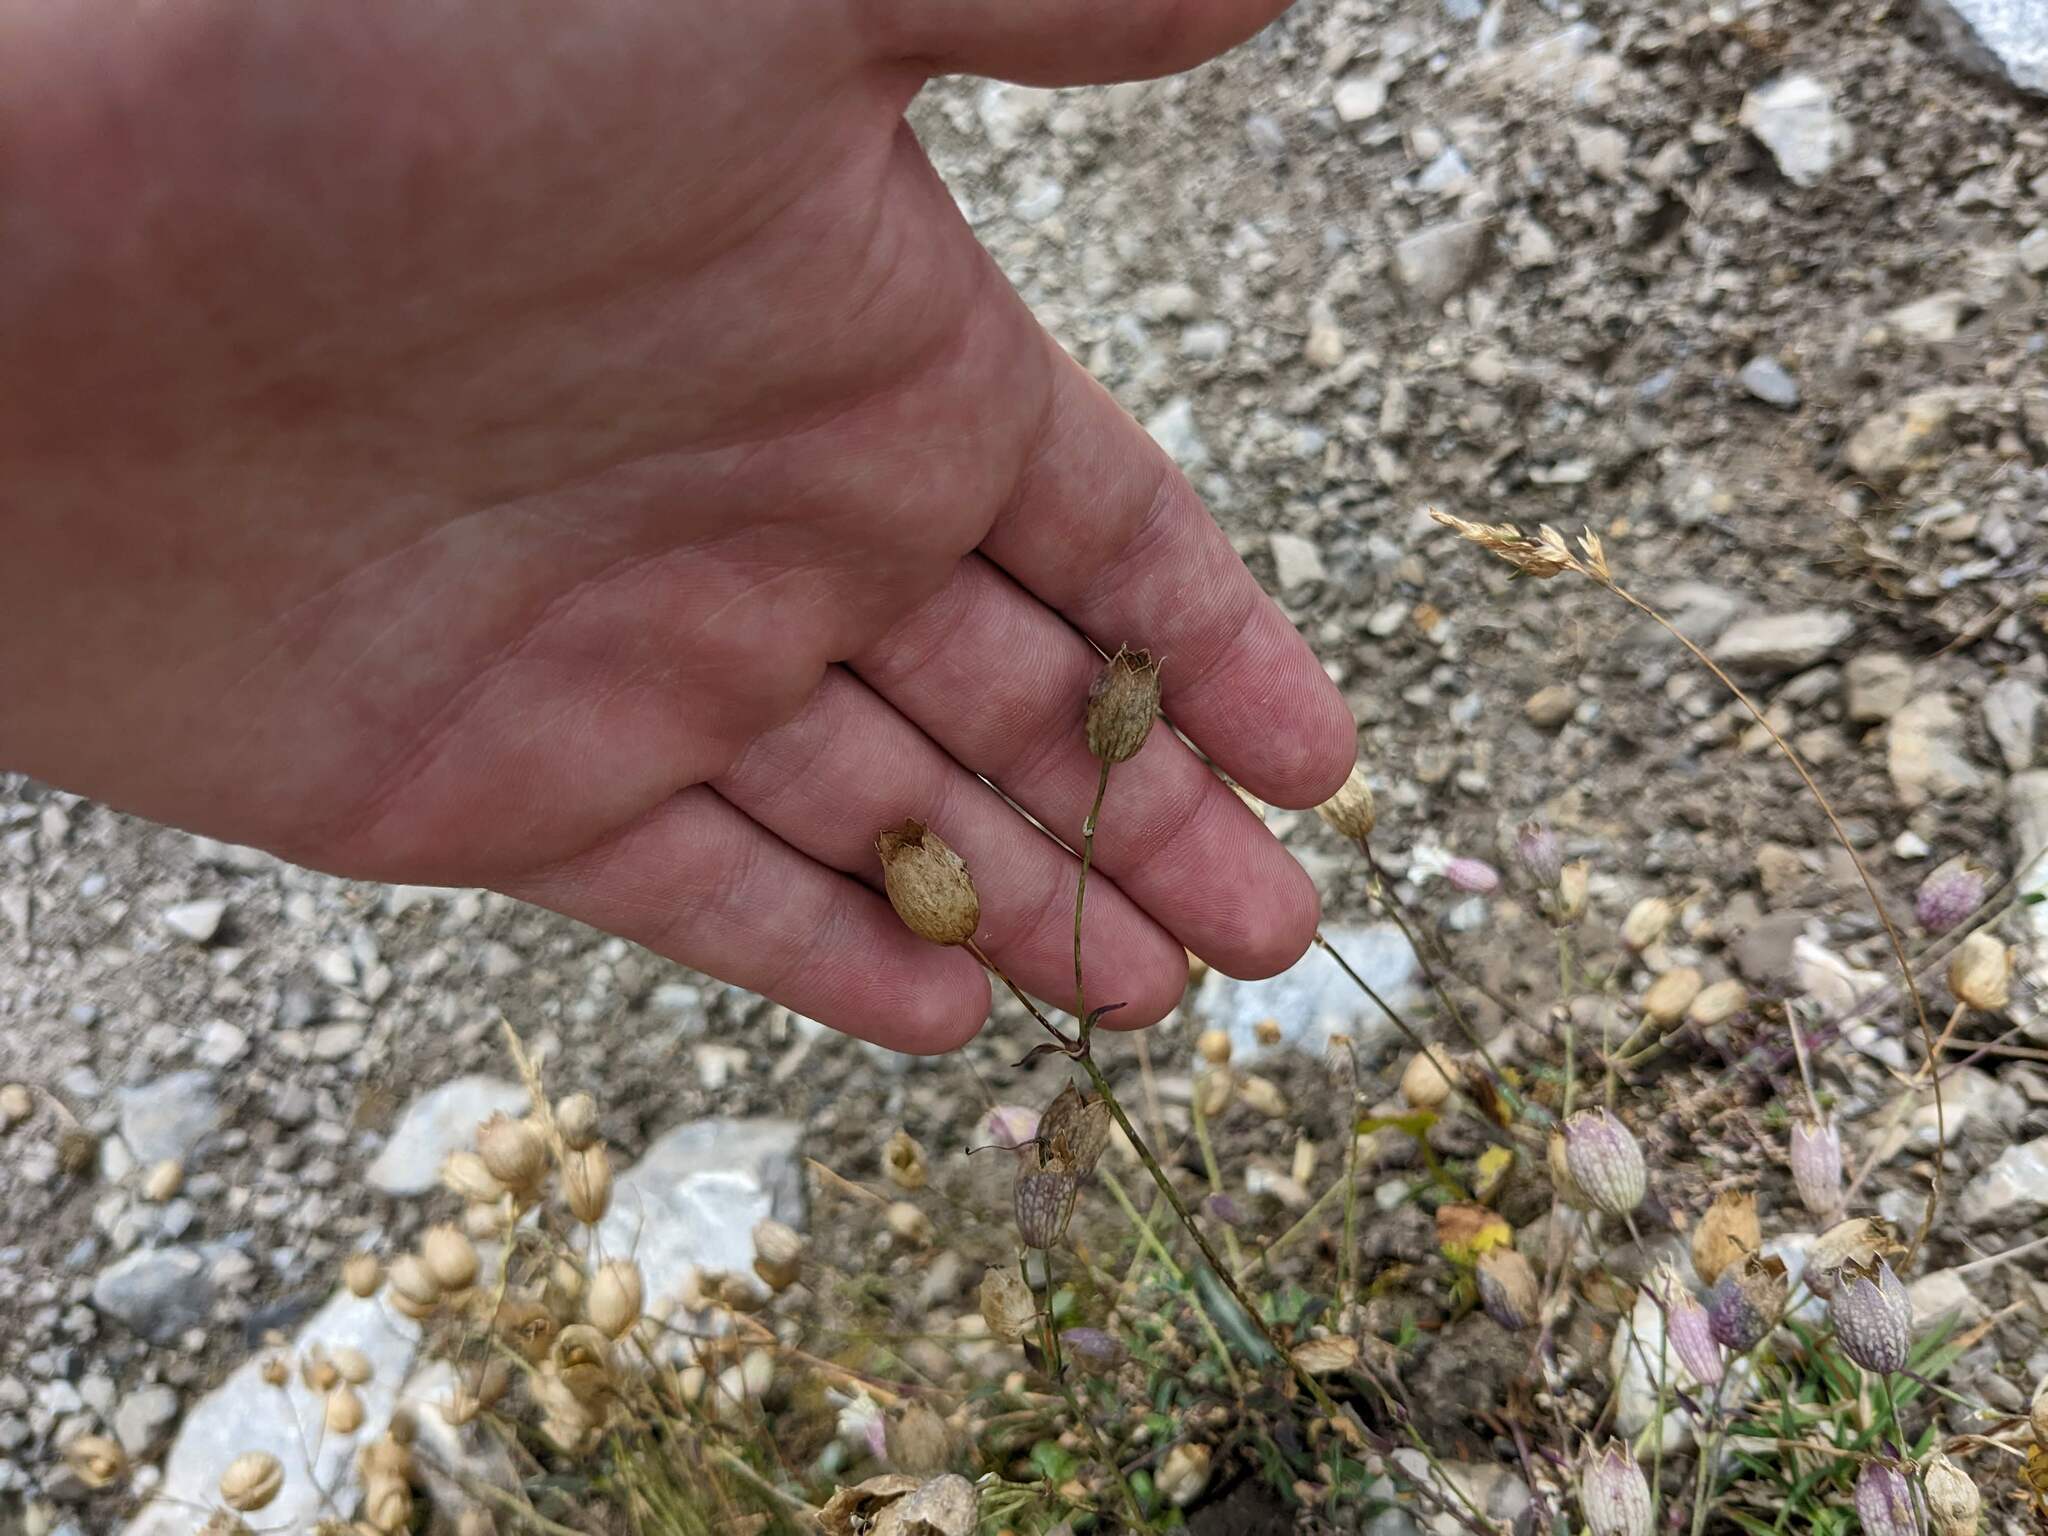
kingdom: Plantae
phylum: Tracheophyta
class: Magnoliopsida
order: Caryophyllales
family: Caryophyllaceae
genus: Silene
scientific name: Silene vulgaris
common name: Bladder campion
